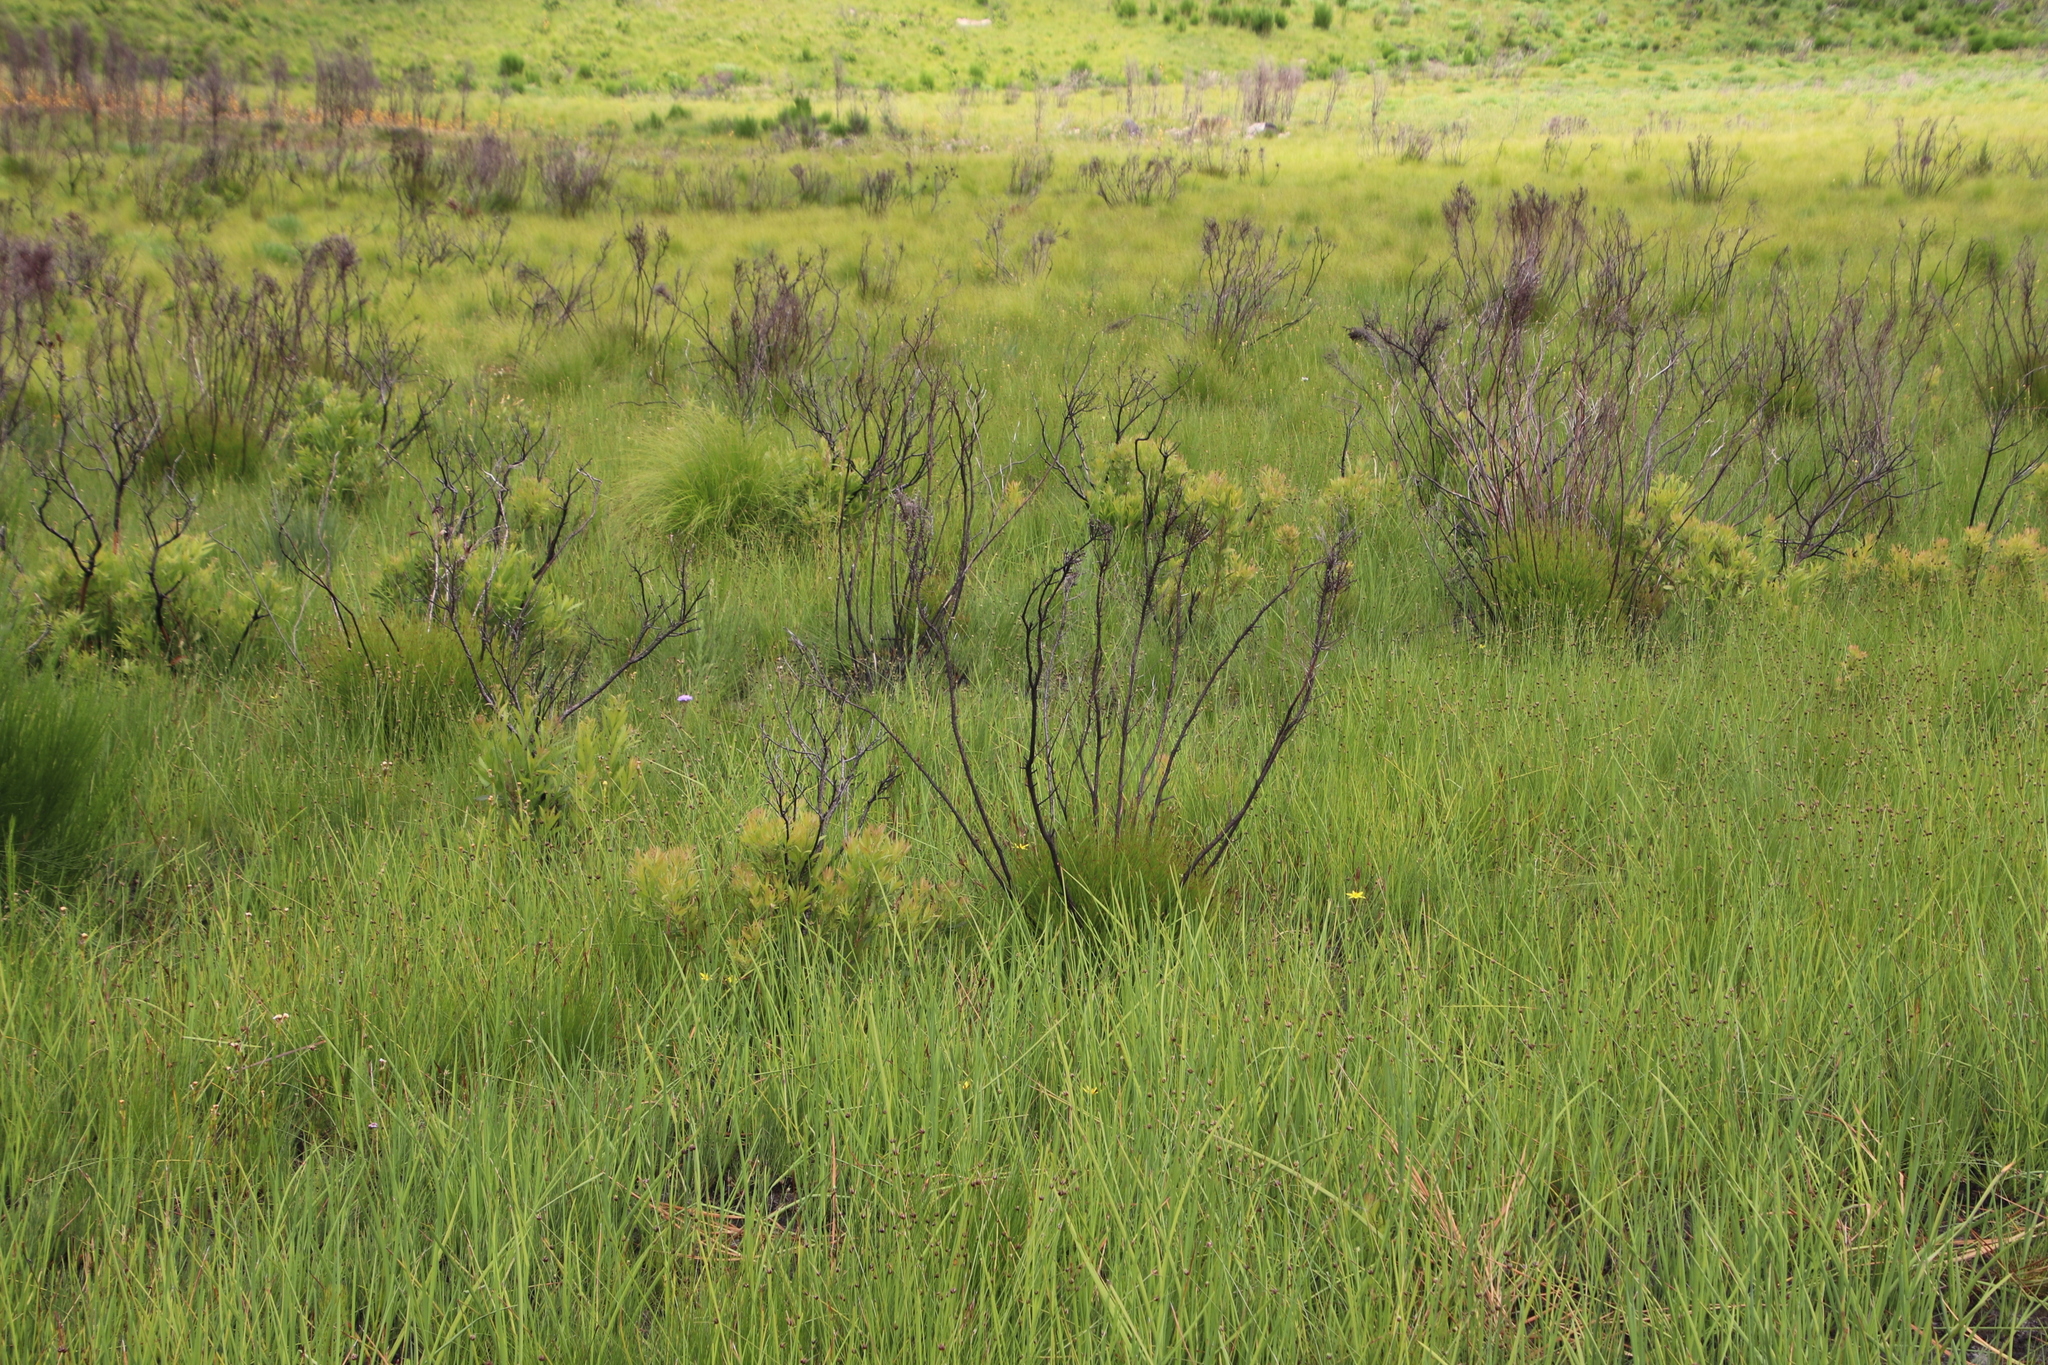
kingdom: Plantae
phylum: Tracheophyta
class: Magnoliopsida
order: Proteales
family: Proteaceae
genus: Leucadendron
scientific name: Leucadendron spissifolium
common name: Spear-leaf conebush
